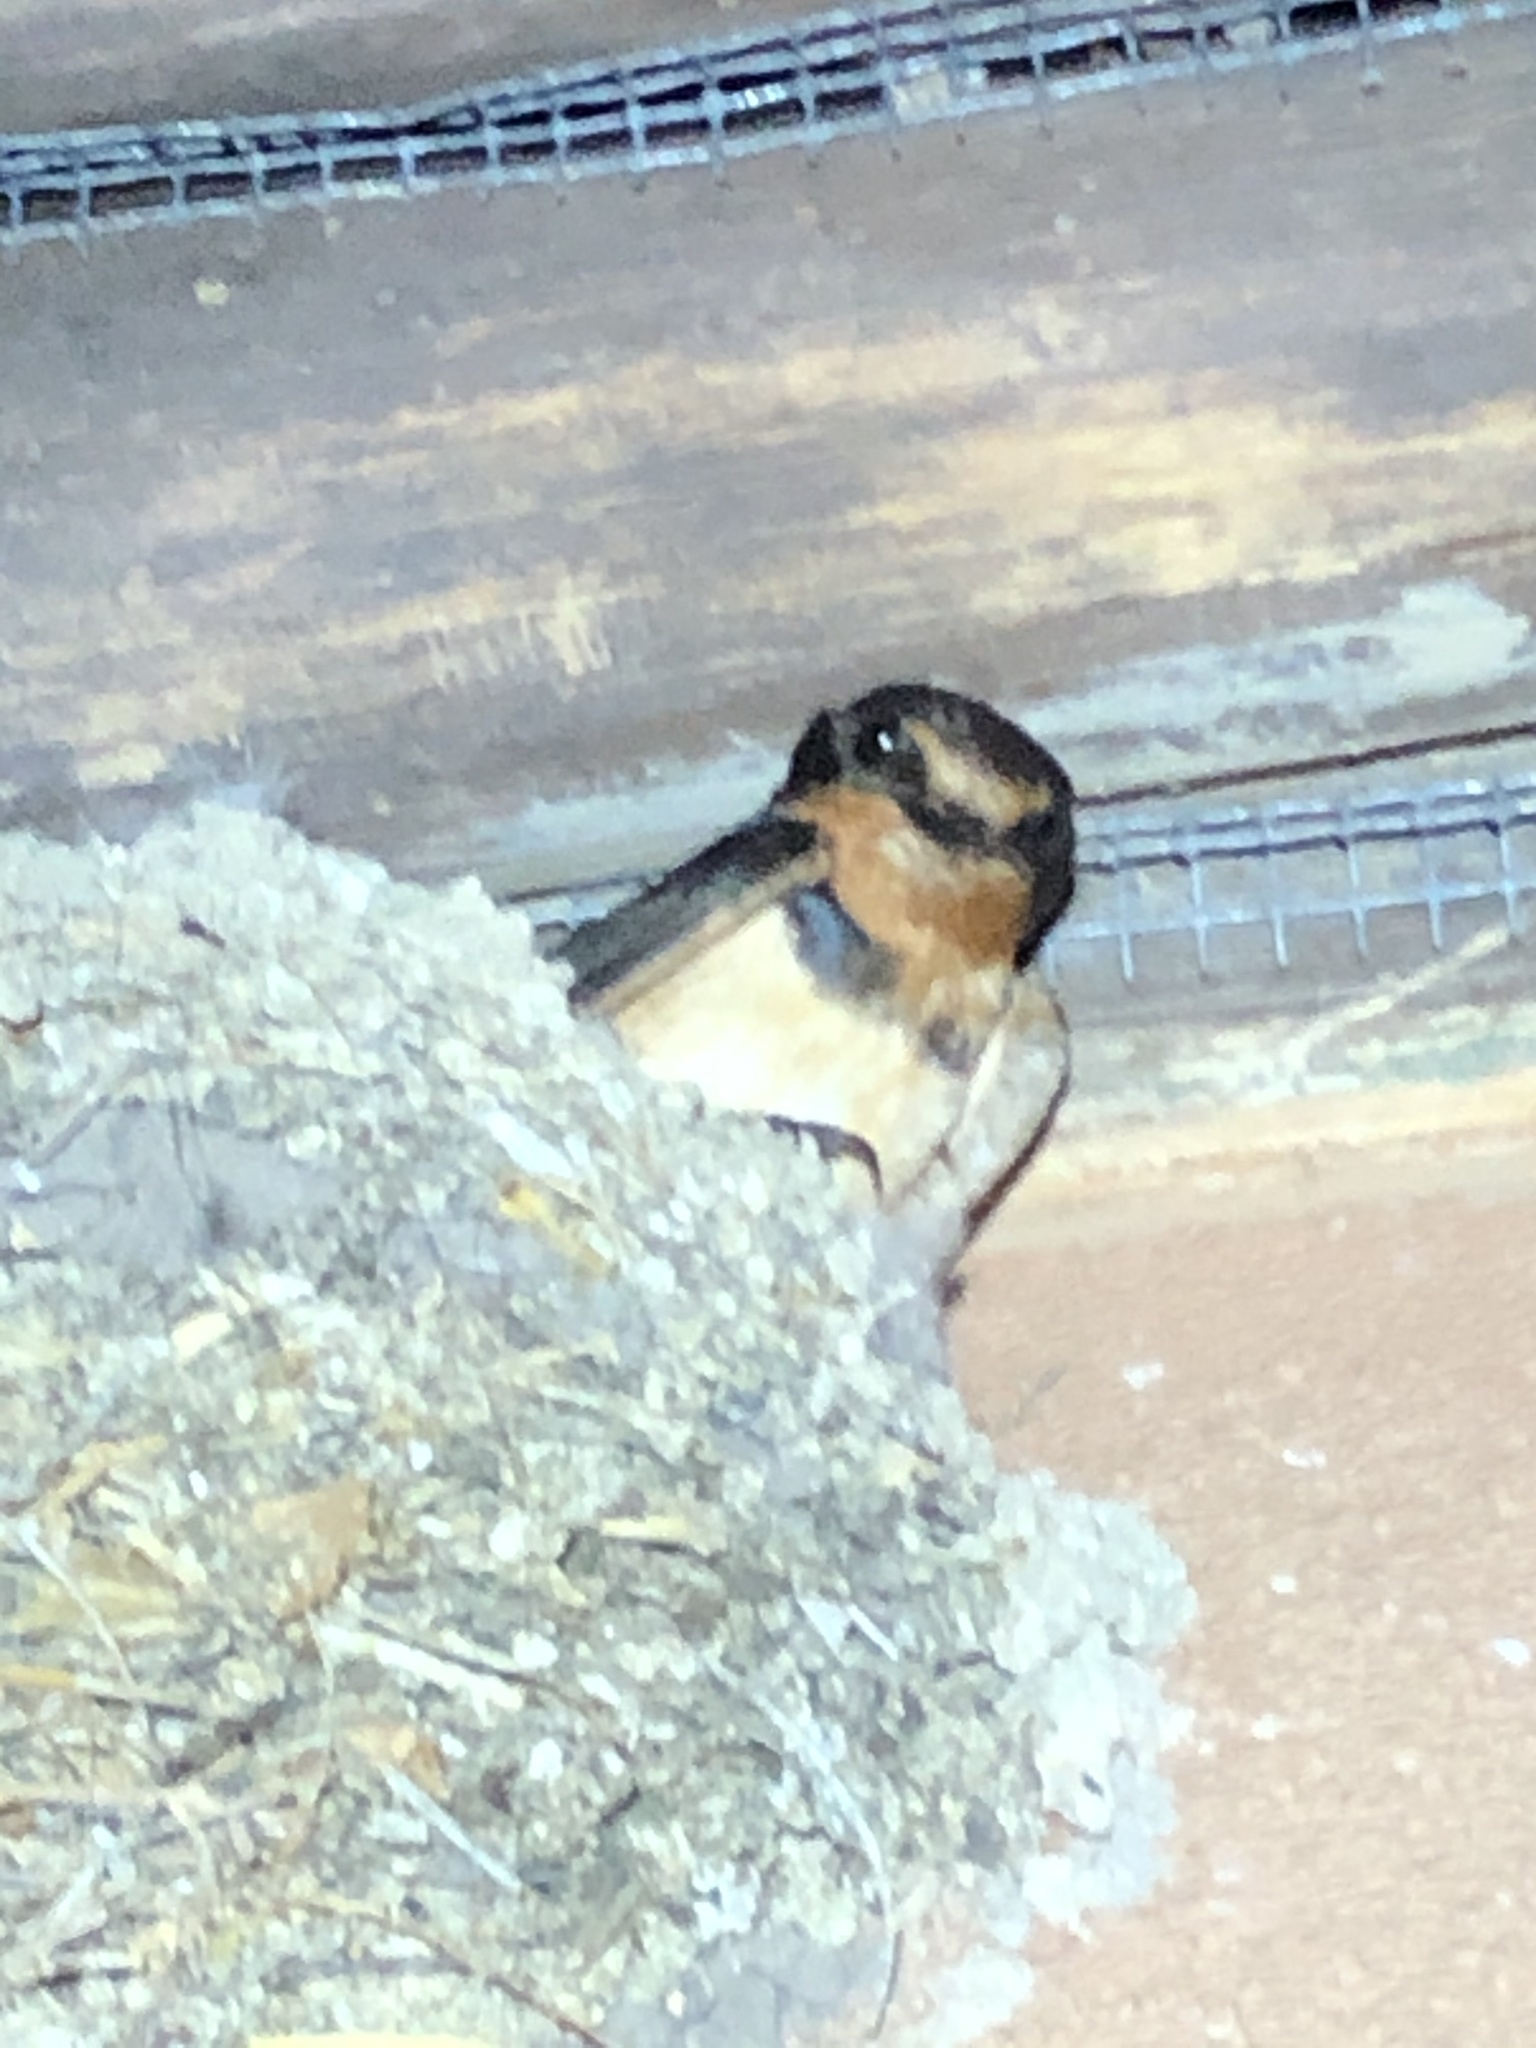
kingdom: Animalia
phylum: Chordata
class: Aves
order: Passeriformes
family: Hirundinidae
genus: Hirundo
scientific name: Hirundo rustica
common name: Barn swallow
